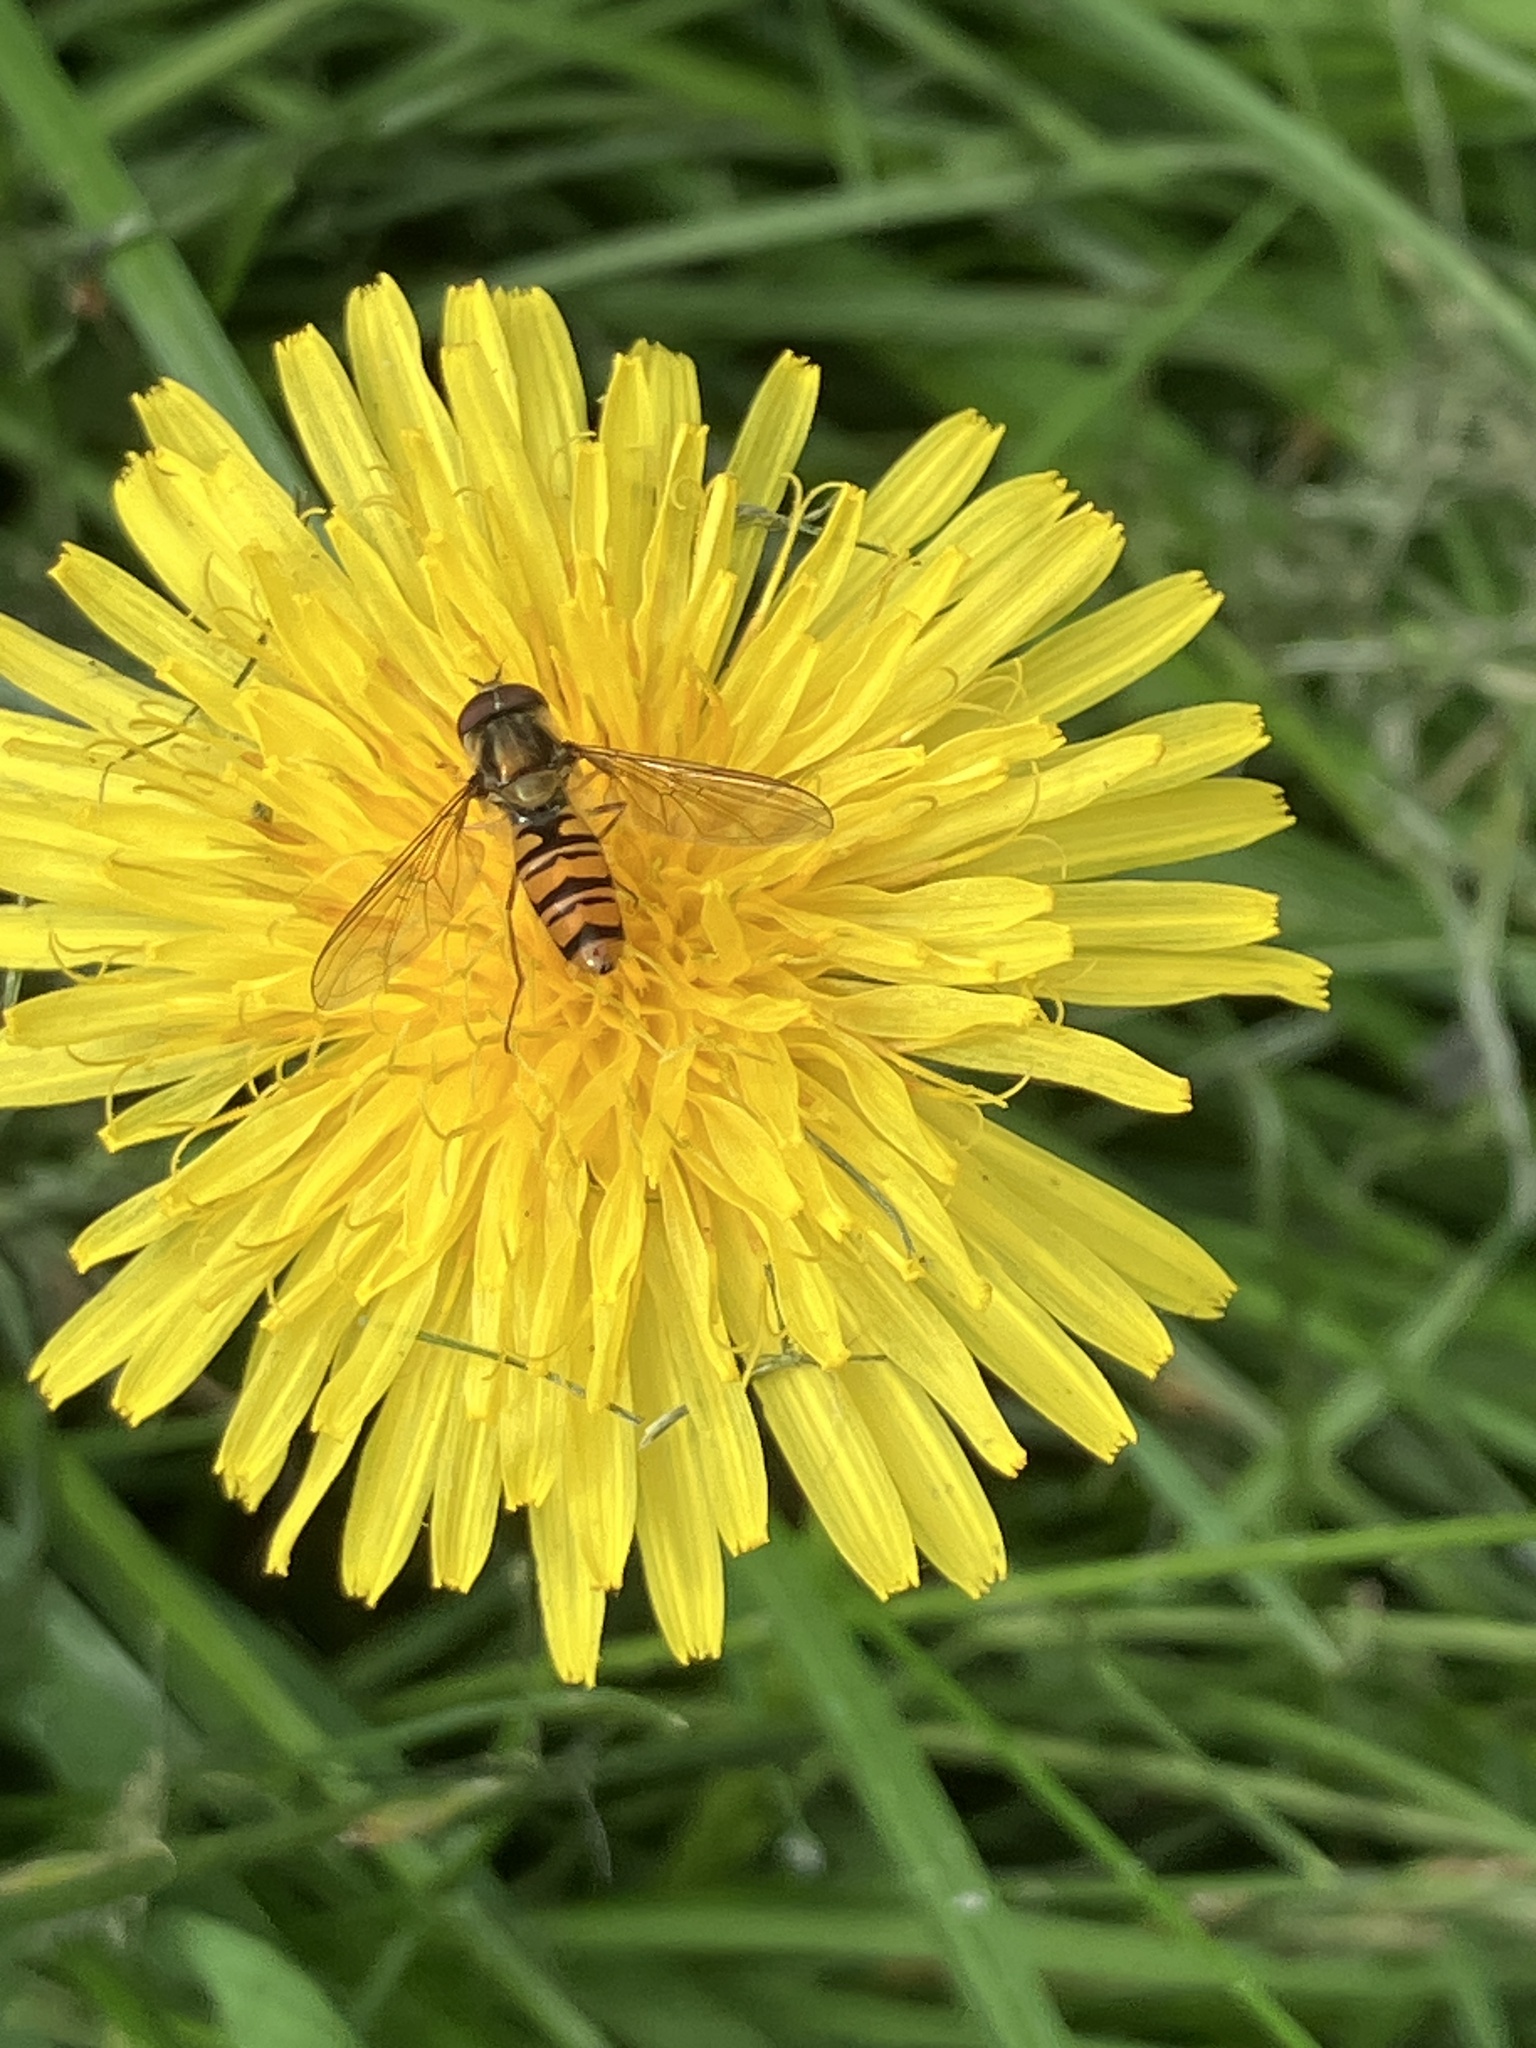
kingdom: Animalia
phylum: Arthropoda
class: Insecta
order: Diptera
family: Syrphidae
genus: Episyrphus
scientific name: Episyrphus balteatus
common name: Marmalade hoverfly
